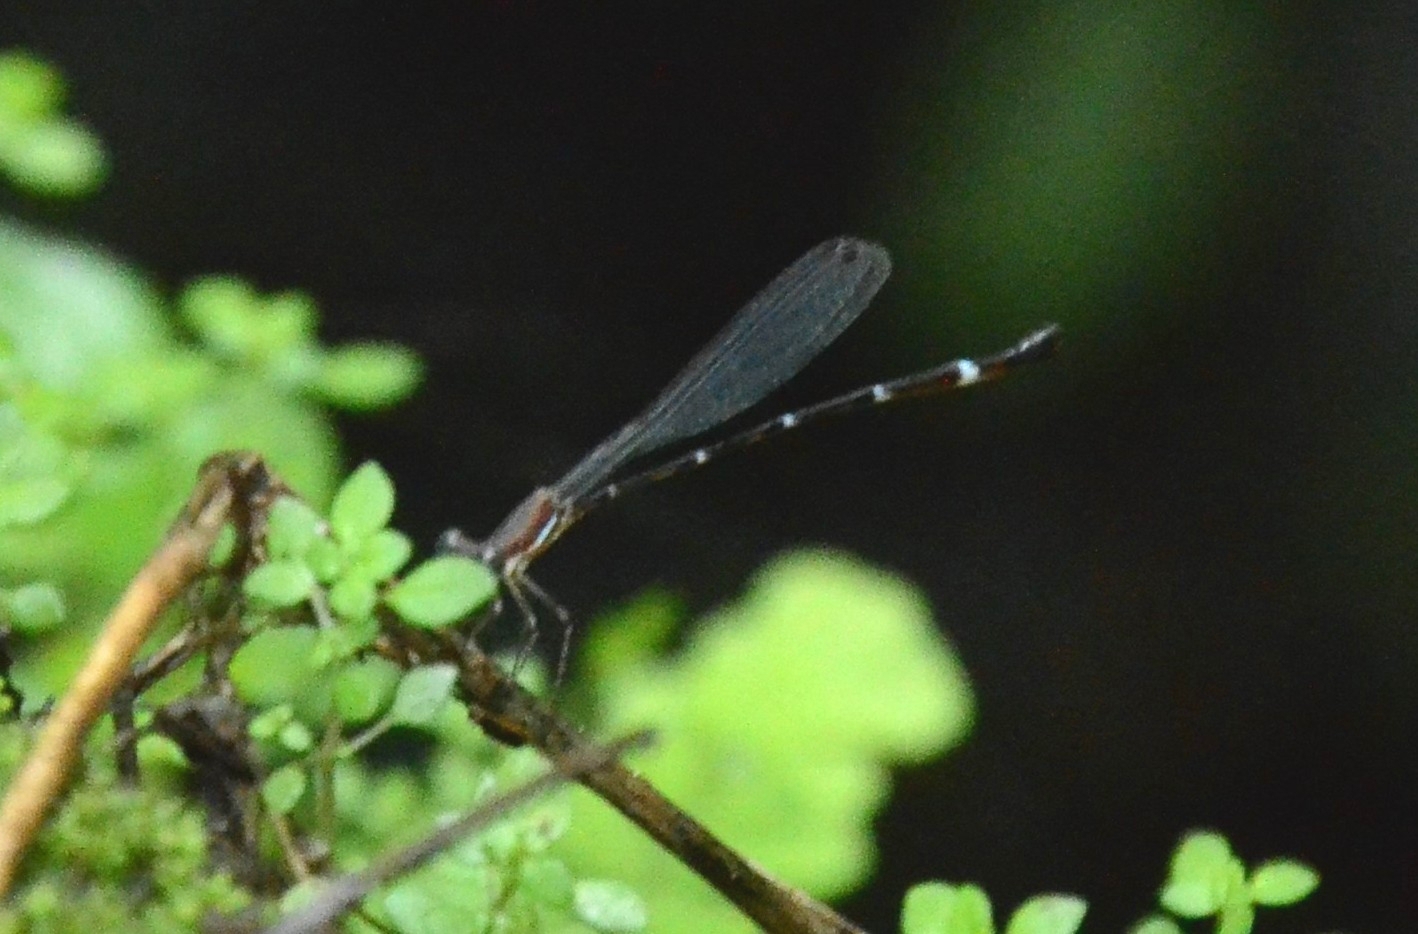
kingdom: Animalia
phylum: Arthropoda
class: Insecta
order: Odonata
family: Platystictidae
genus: Protosticta
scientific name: Protosticta sanguinostigma
